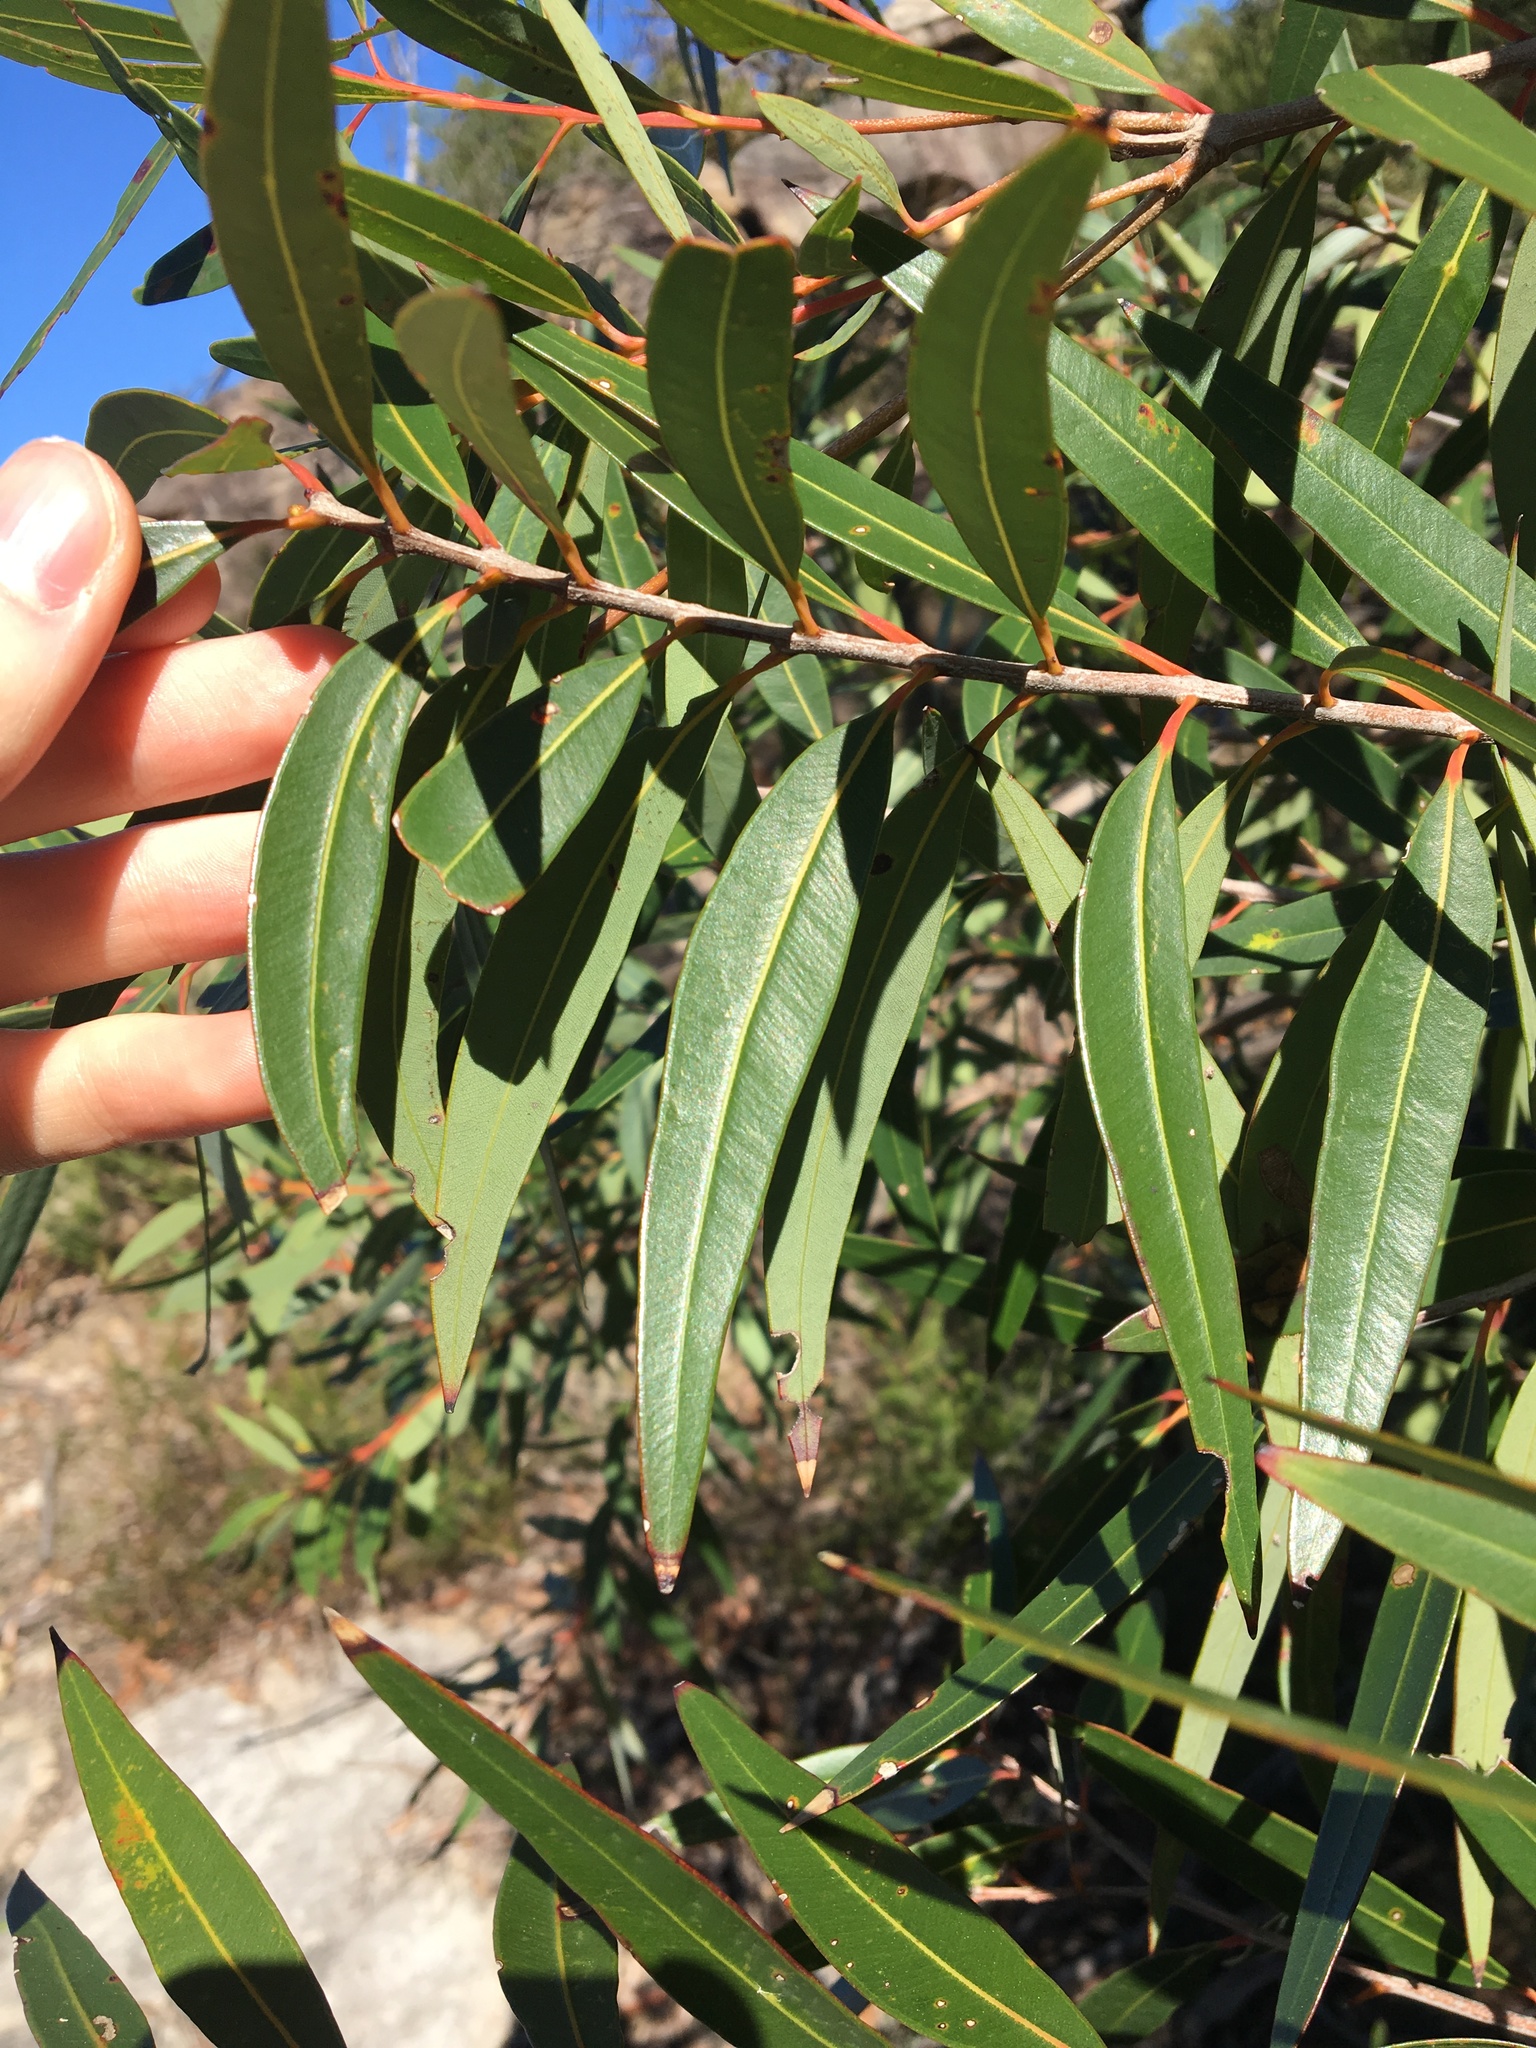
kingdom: Plantae
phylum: Tracheophyta
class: Magnoliopsida
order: Myrtales
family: Myrtaceae
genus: Angophora
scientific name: Angophora crassifolia
